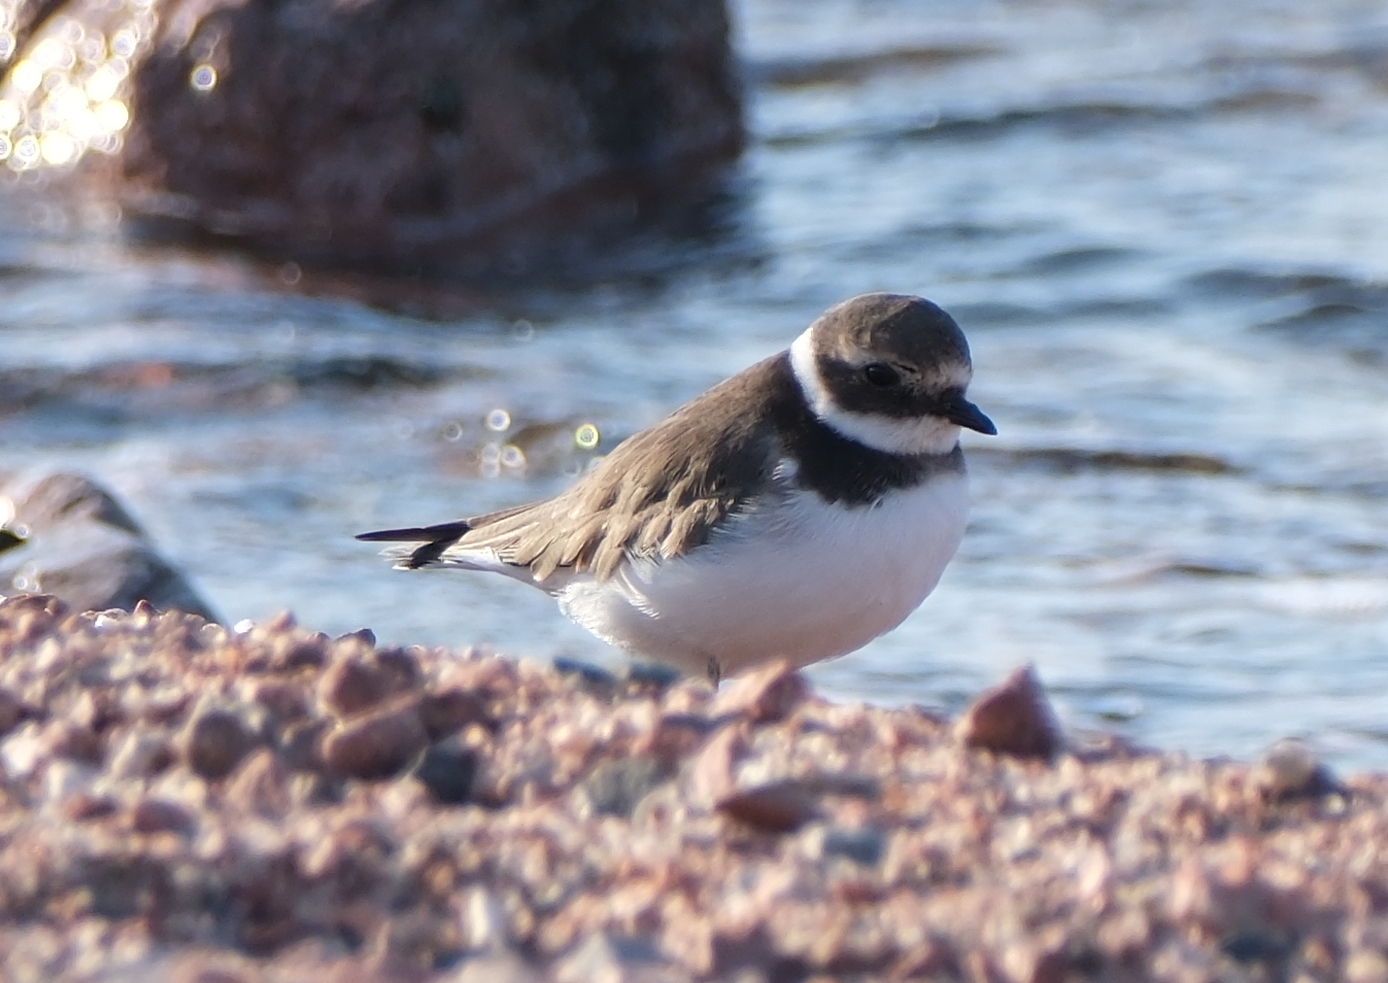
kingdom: Animalia
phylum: Chordata
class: Aves
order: Charadriiformes
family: Charadriidae
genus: Charadrius
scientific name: Charadrius hiaticula
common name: Common ringed plover
